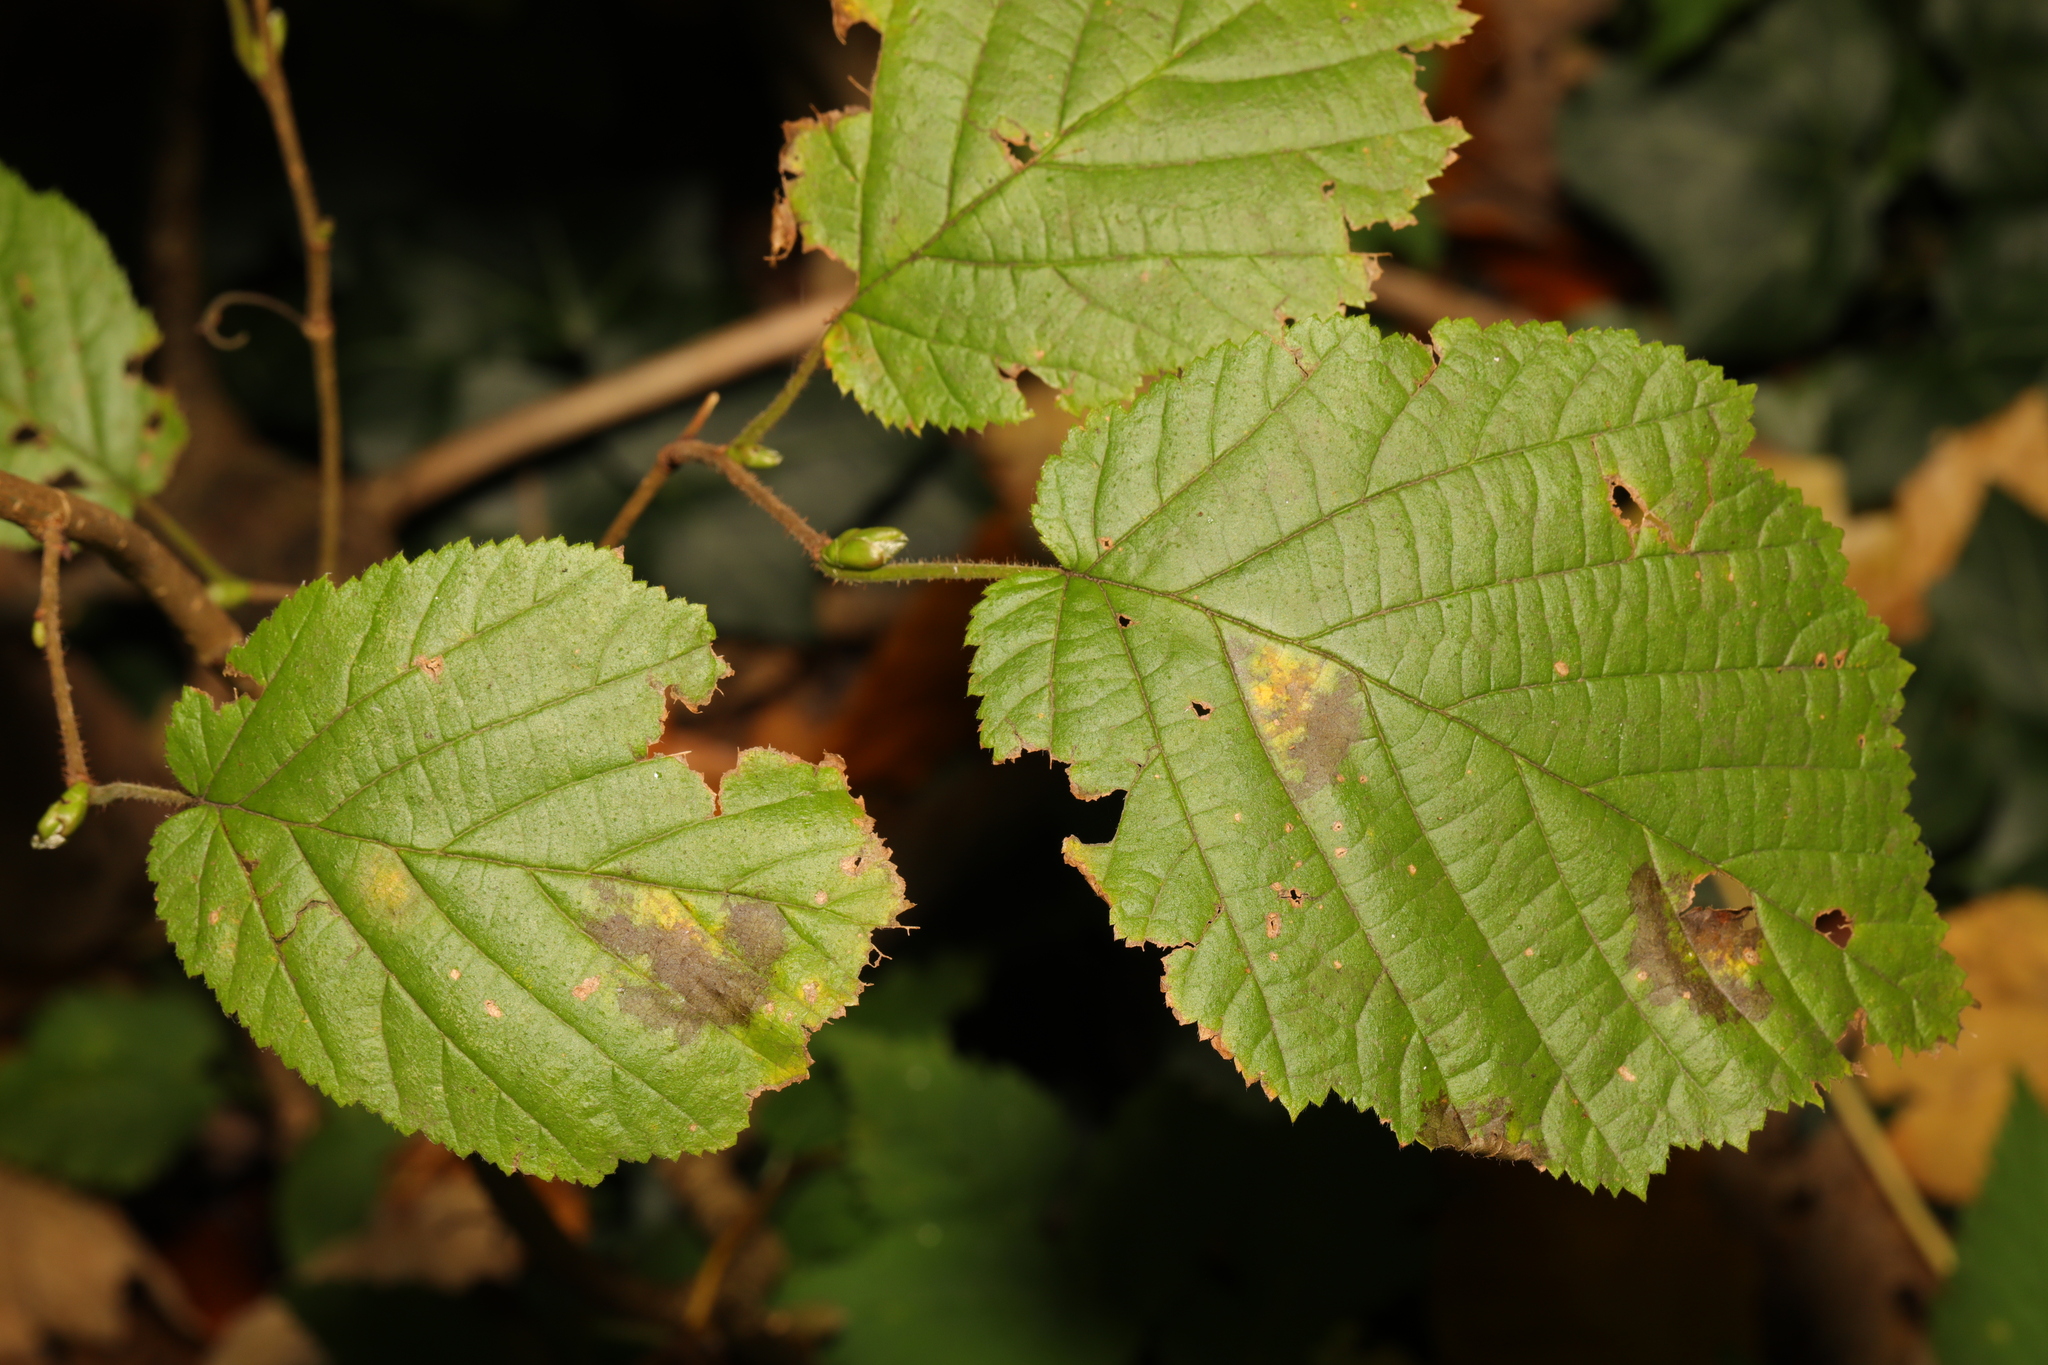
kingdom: Plantae
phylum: Tracheophyta
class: Magnoliopsida
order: Fagales
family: Betulaceae
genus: Corylus
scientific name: Corylus avellana
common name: European hazel
